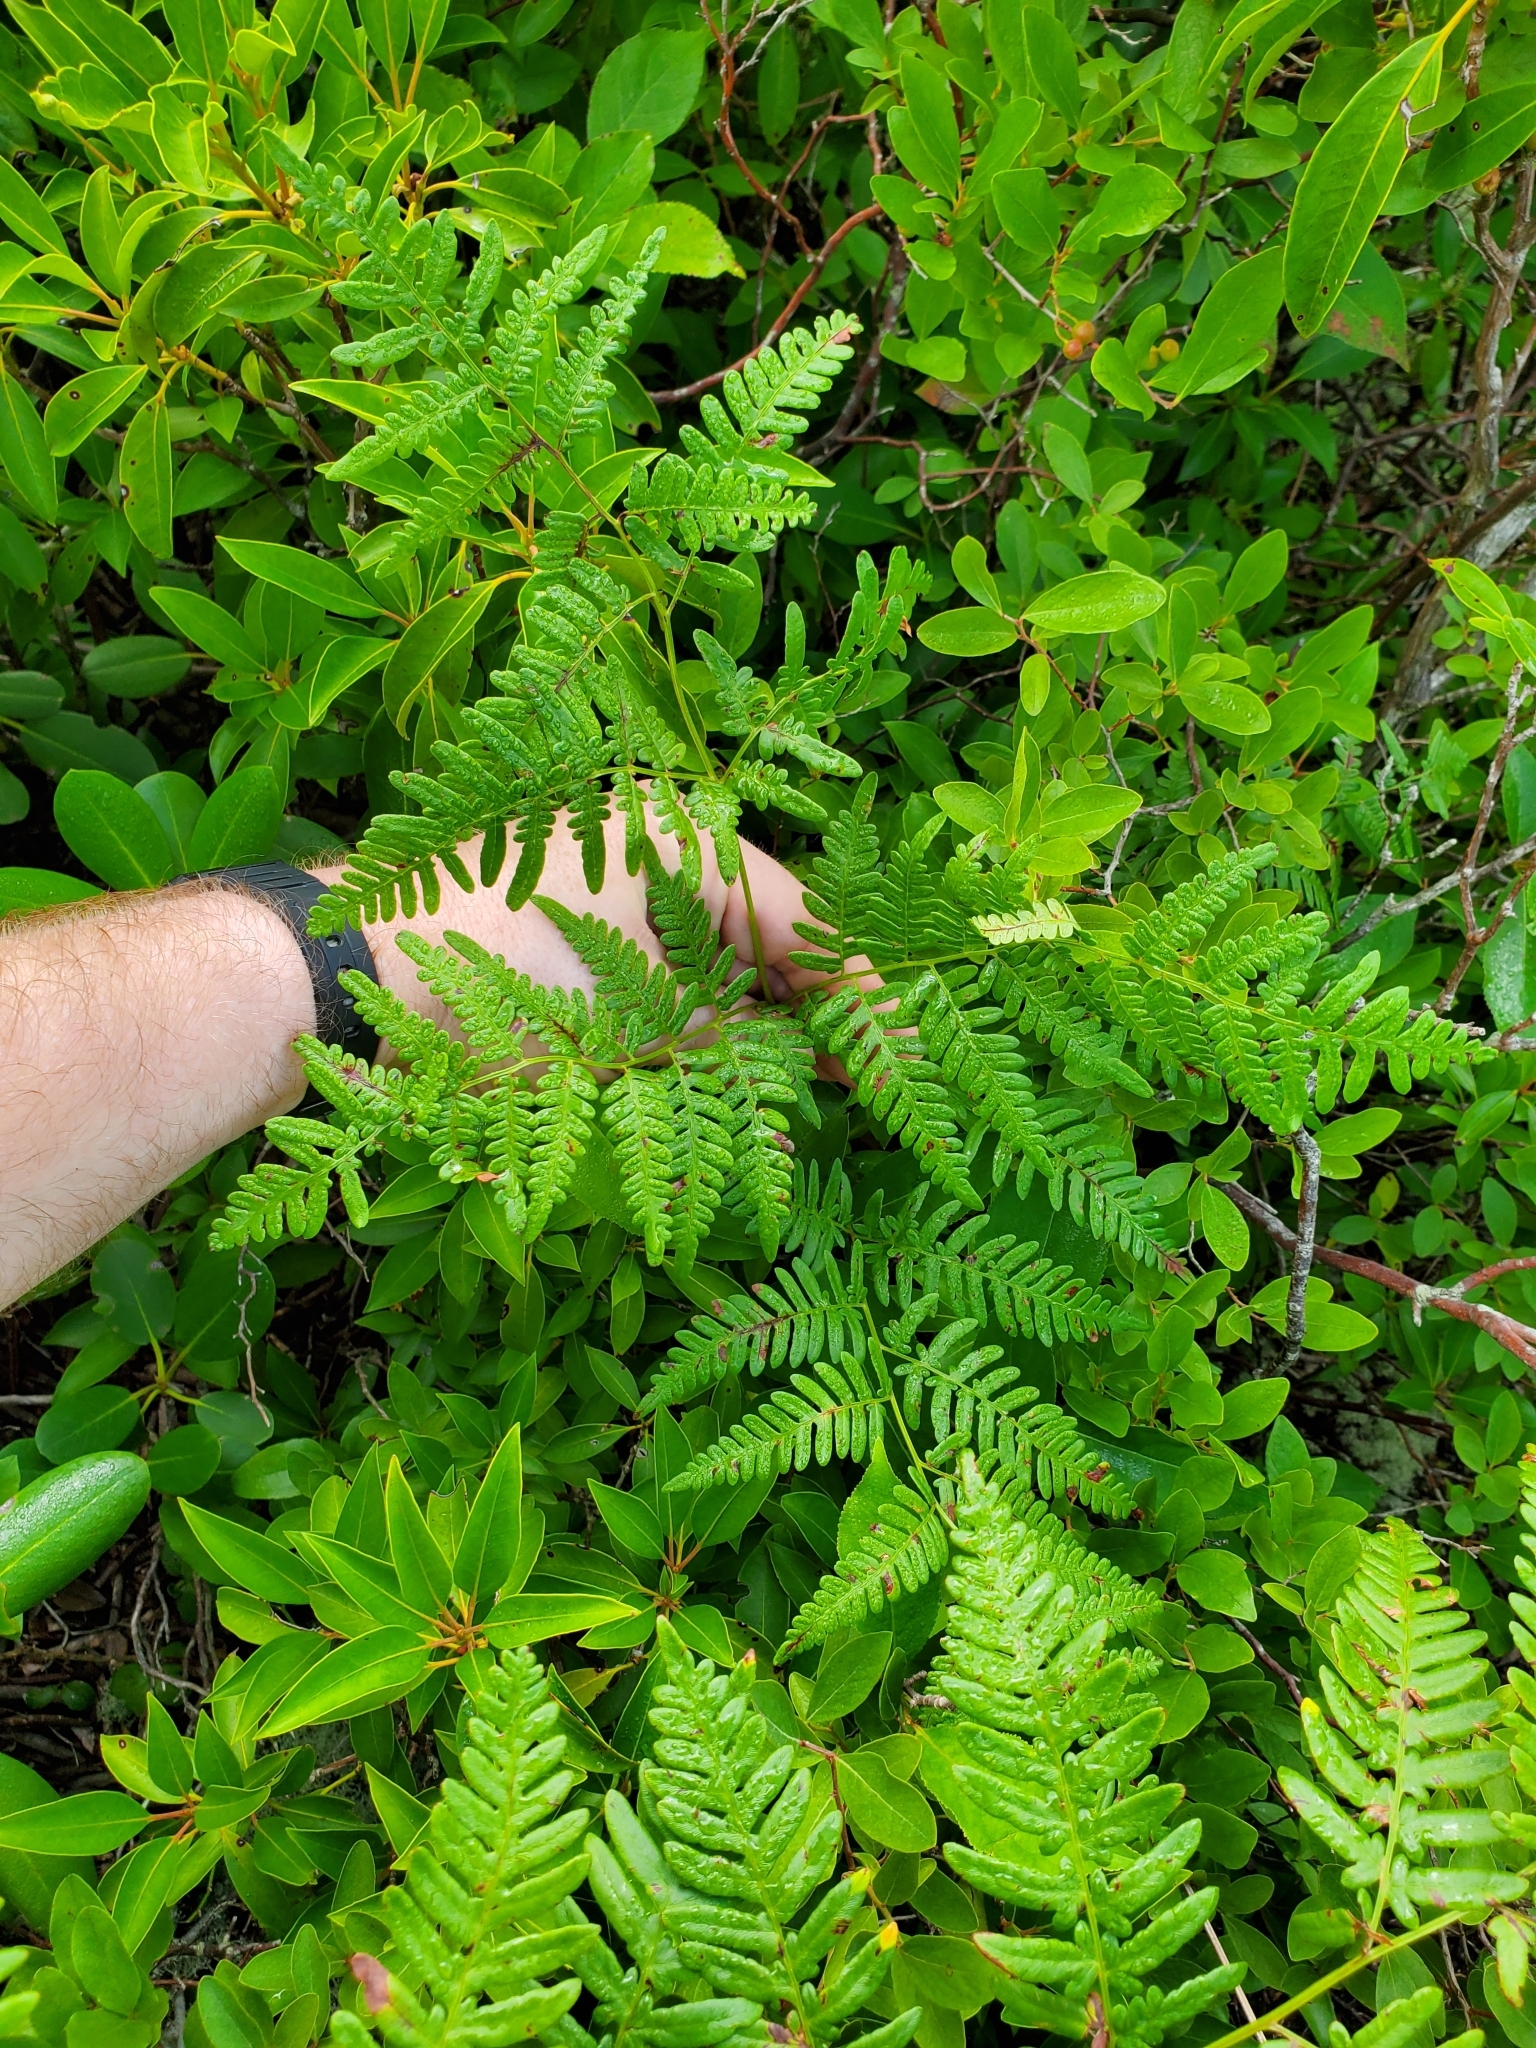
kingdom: Plantae
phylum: Tracheophyta
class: Polypodiopsida
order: Polypodiales
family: Dennstaedtiaceae
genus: Pteridium
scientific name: Pteridium aquilinum
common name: Bracken
